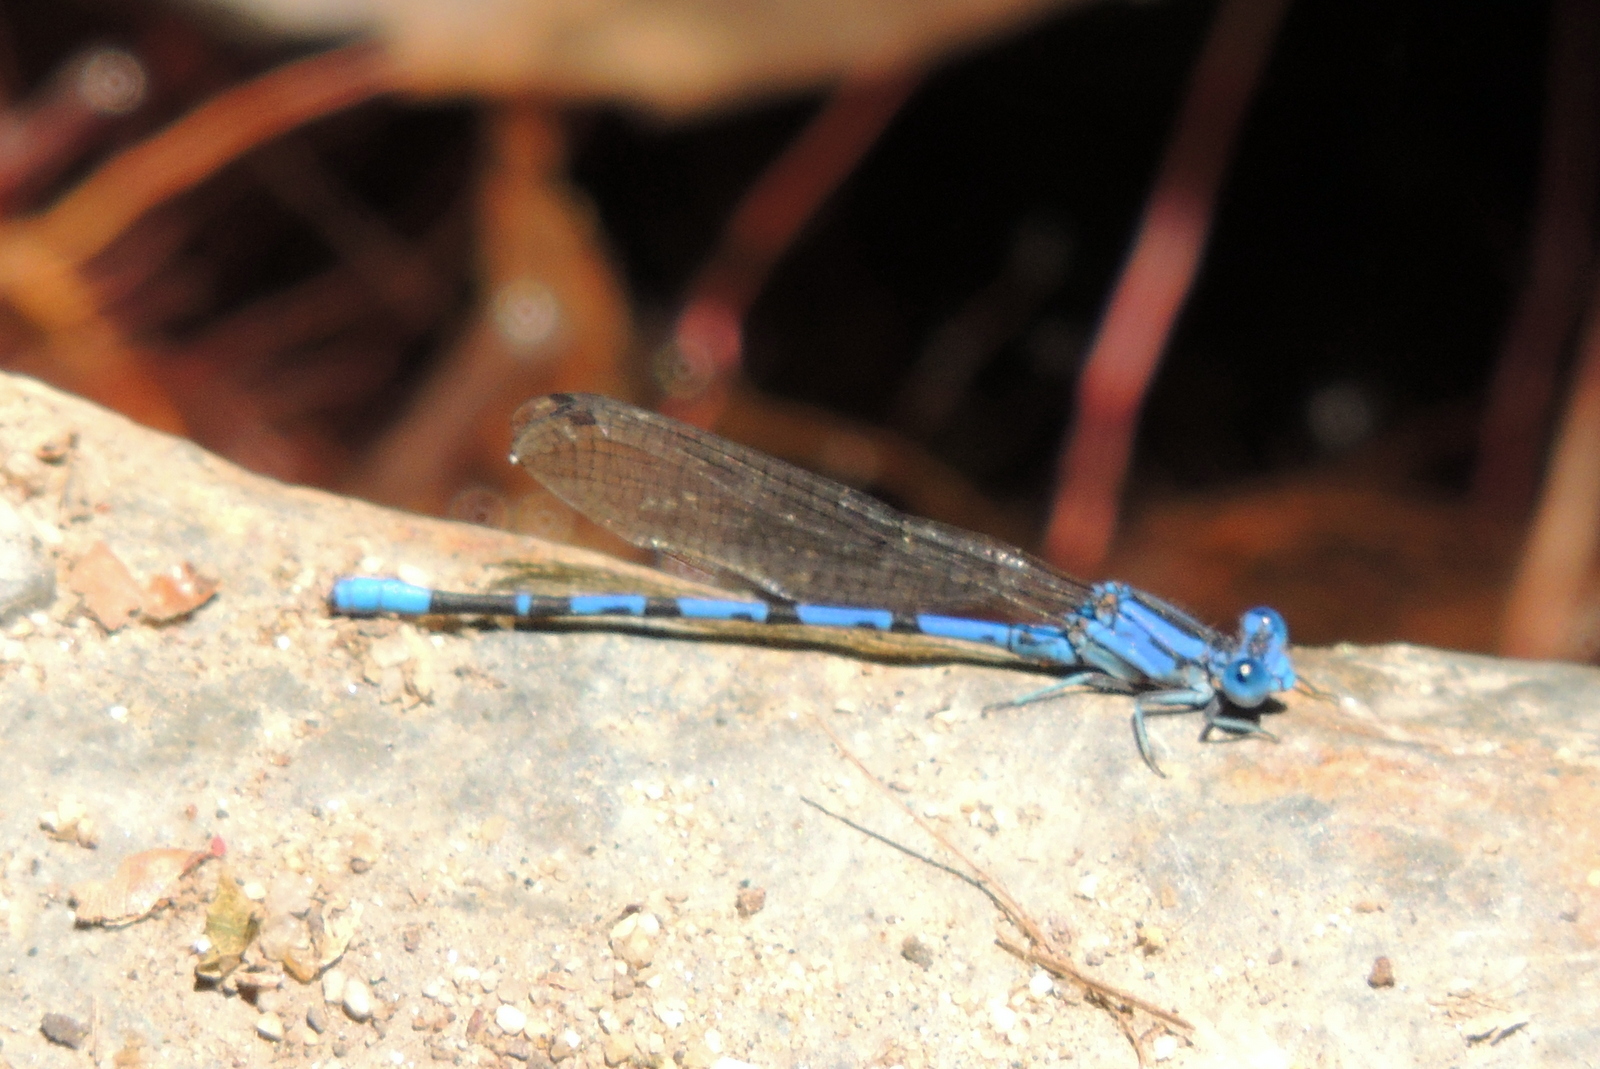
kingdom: Animalia
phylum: Arthropoda
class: Insecta
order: Odonata
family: Coenagrionidae
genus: Argia
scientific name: Argia vivida
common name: Vivid dancer
